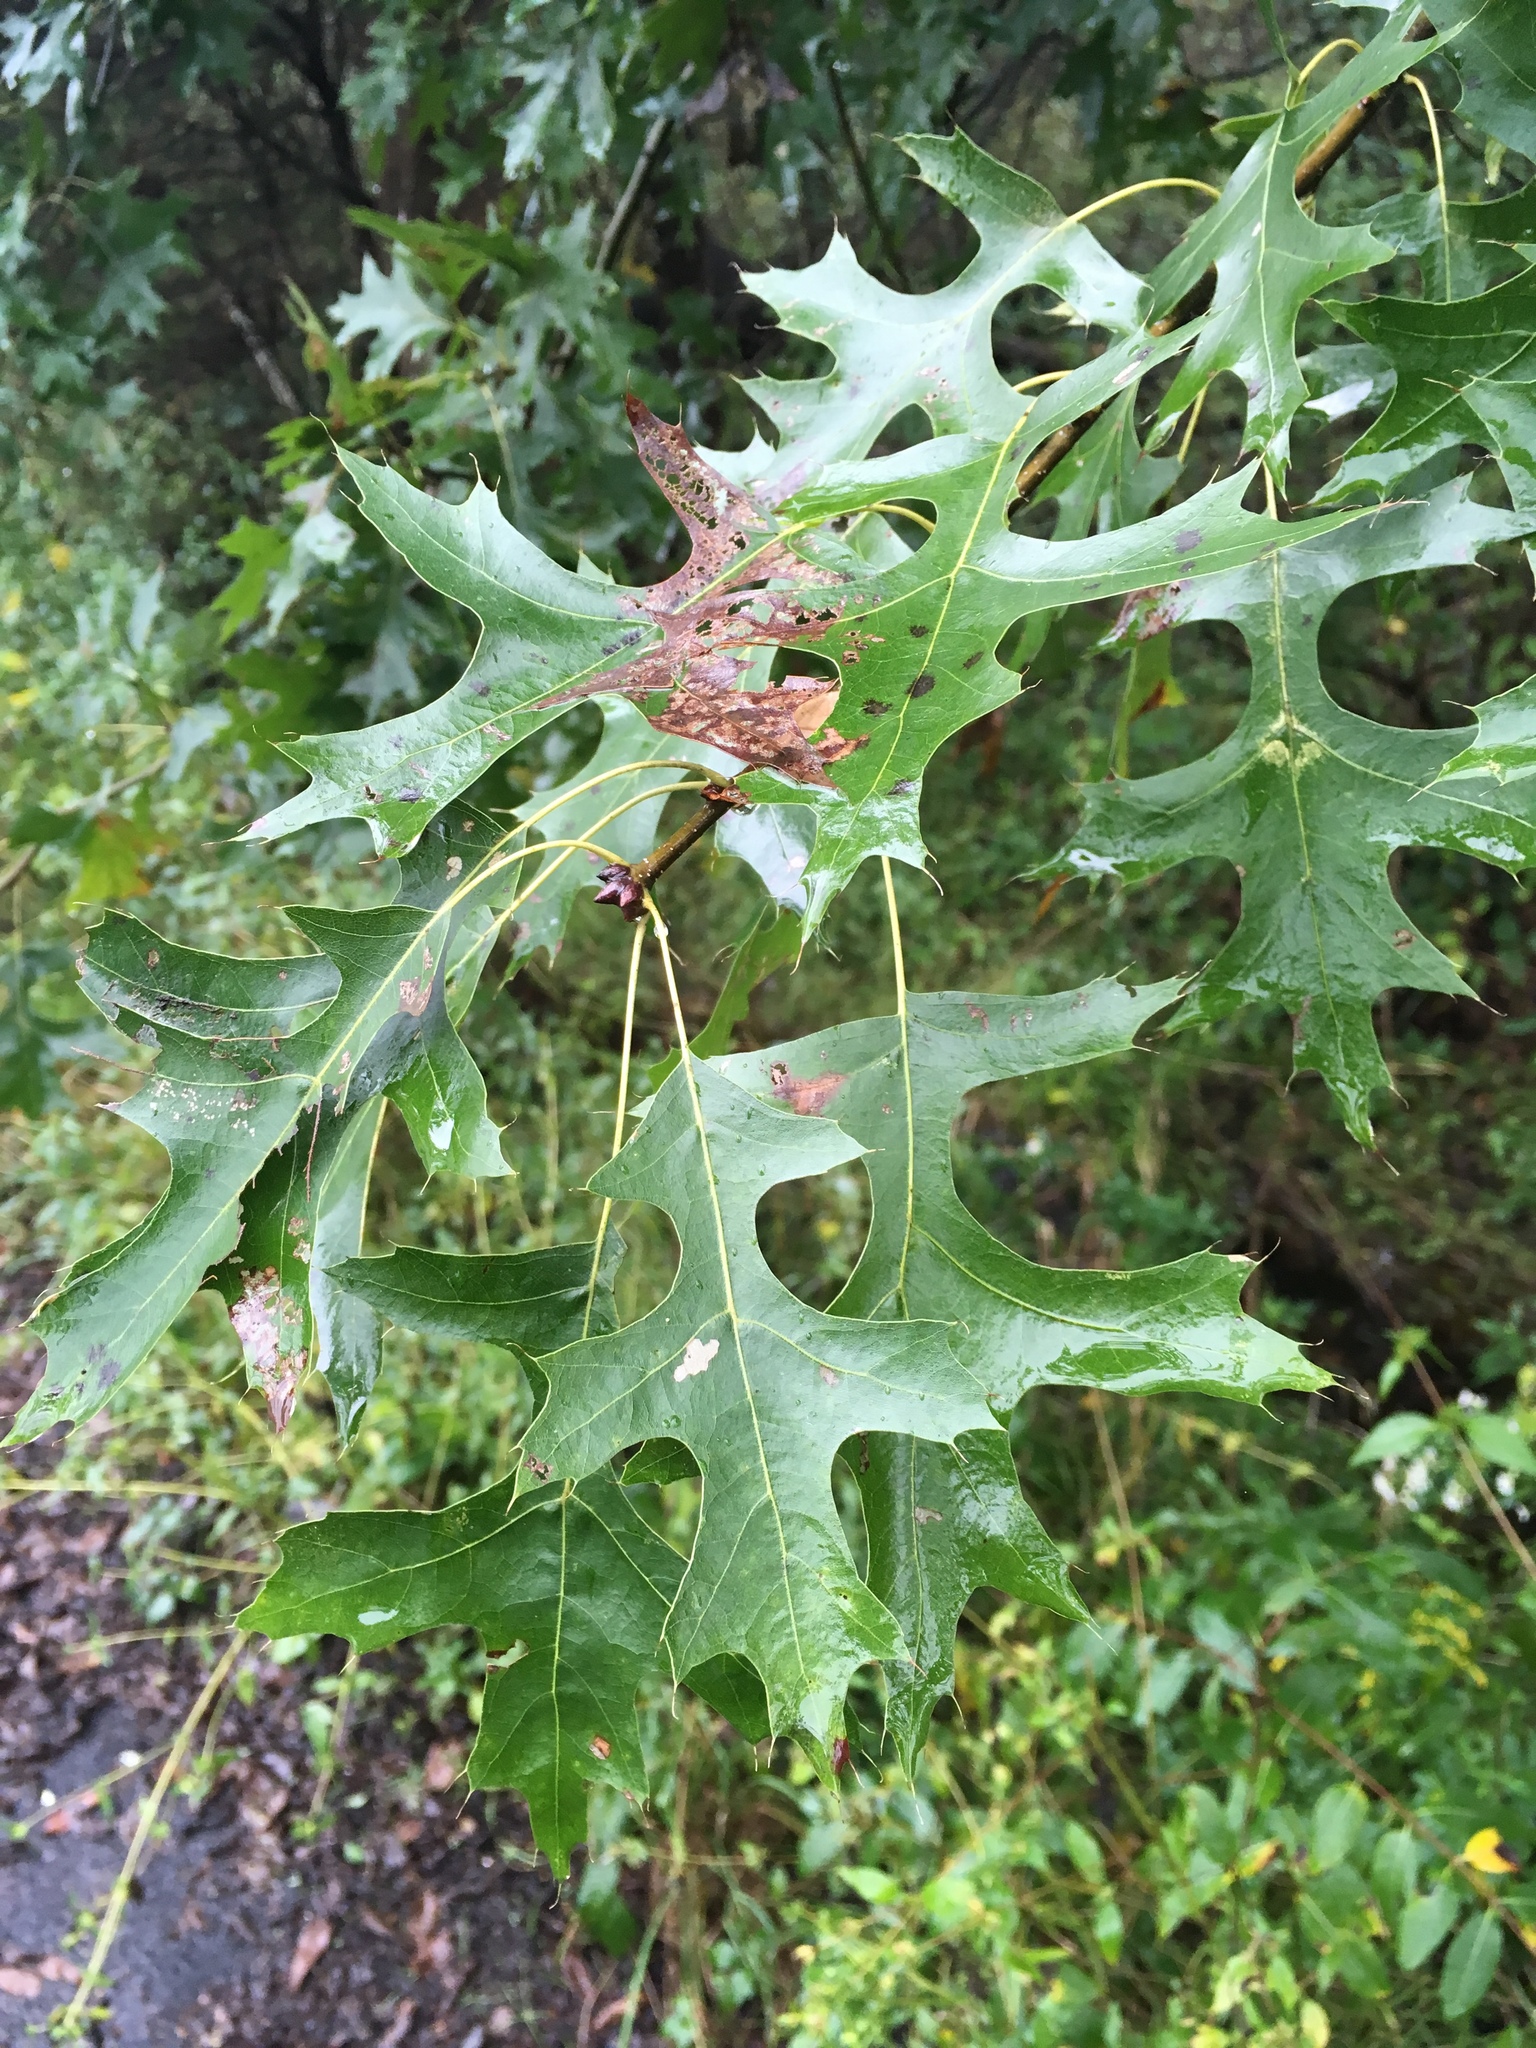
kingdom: Plantae
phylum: Tracheophyta
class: Magnoliopsida
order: Fagales
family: Fagaceae
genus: Quercus
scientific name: Quercus coccinea
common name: Scarlet oak
